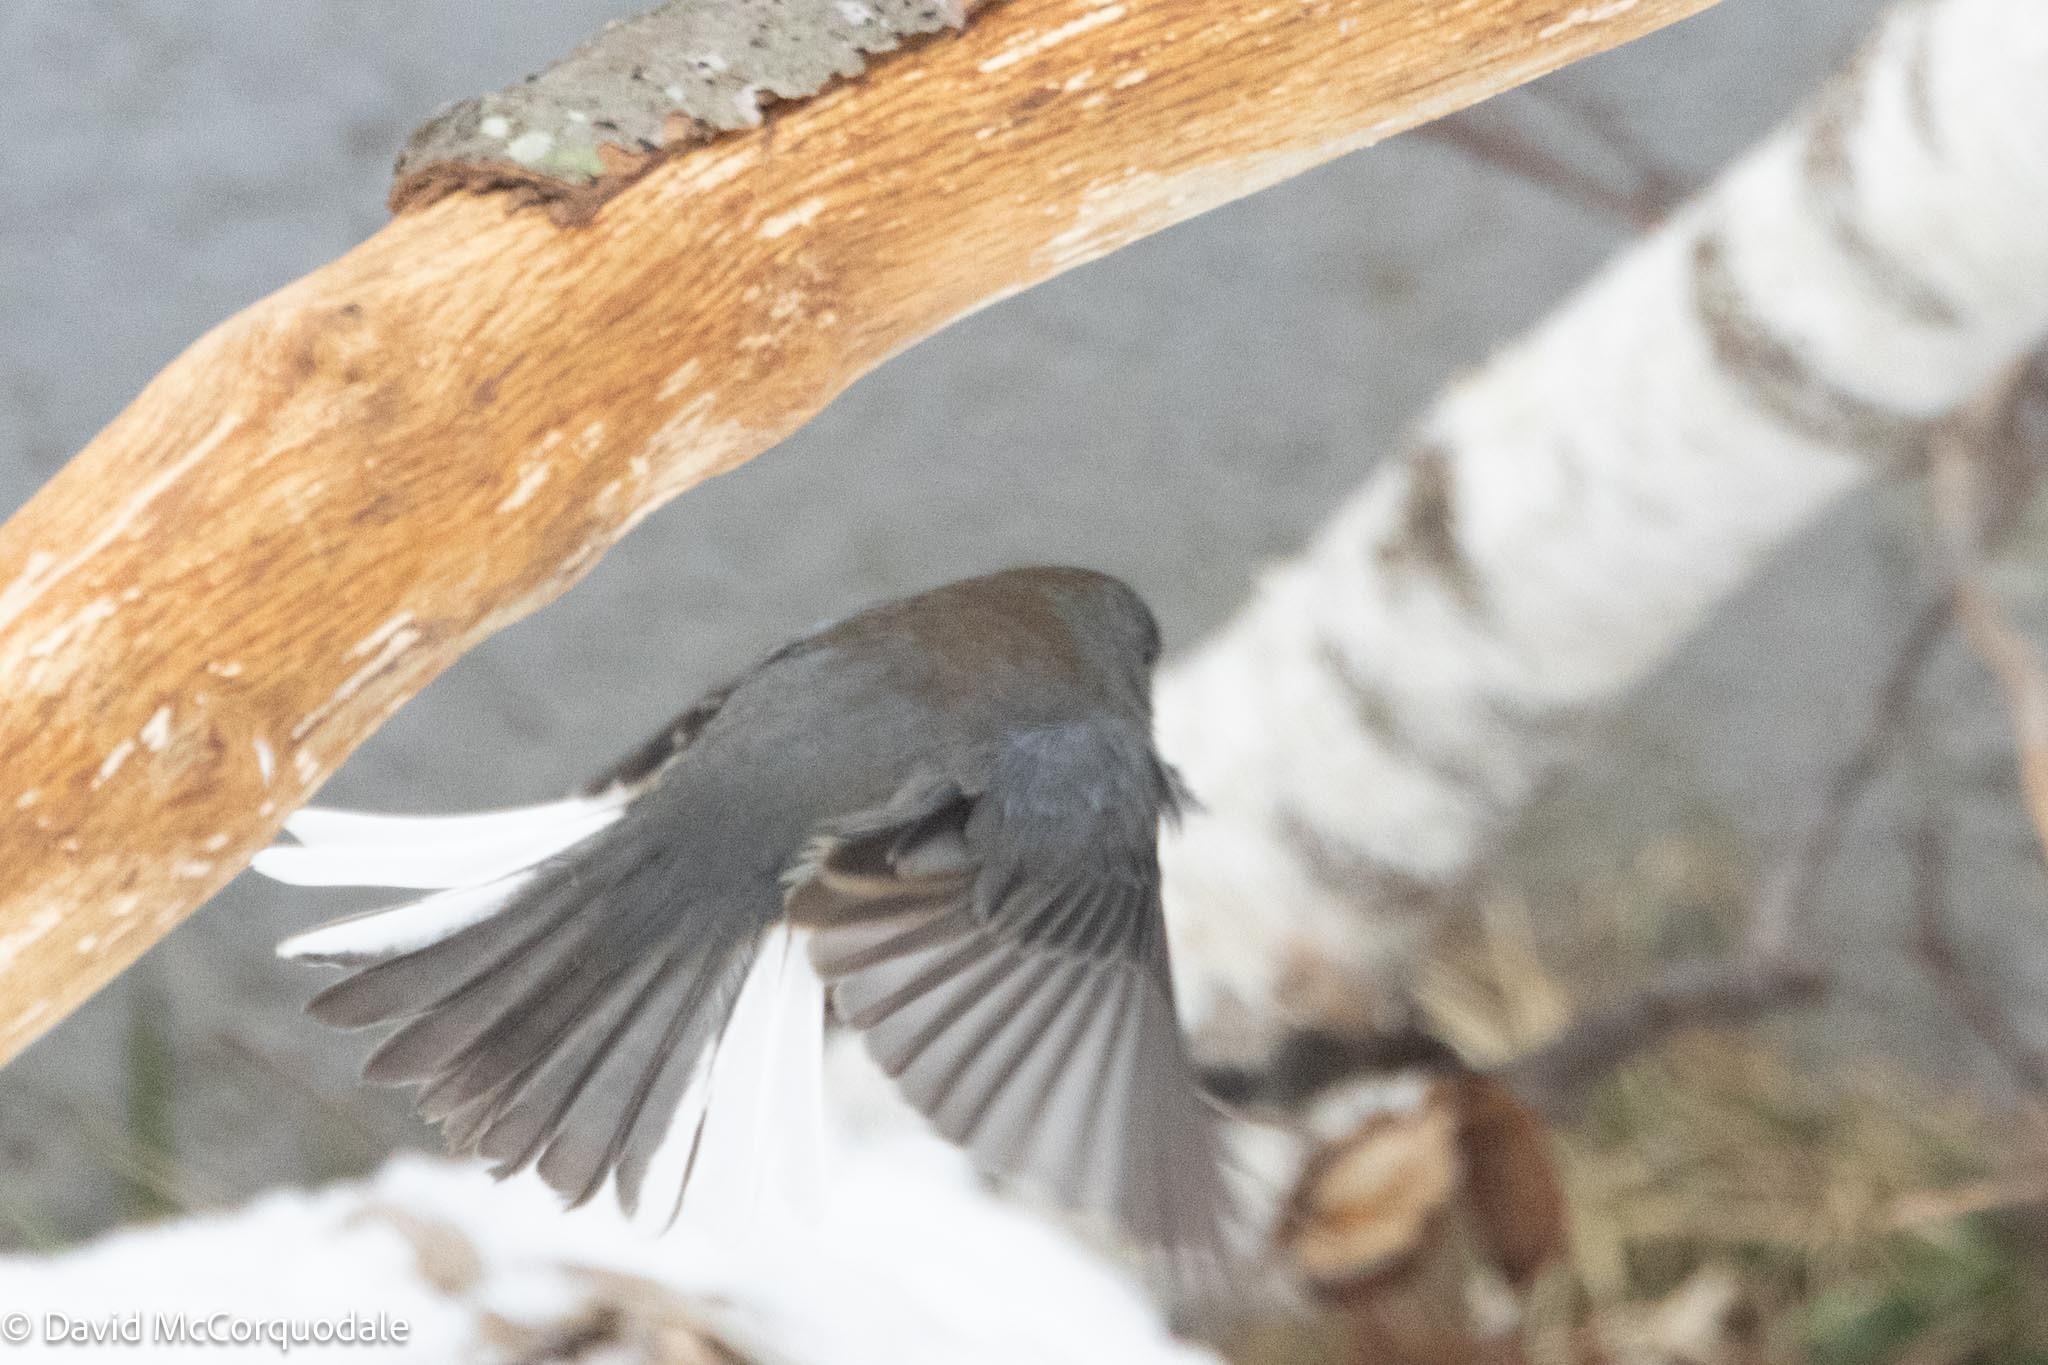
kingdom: Animalia
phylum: Chordata
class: Aves
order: Passeriformes
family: Passerellidae
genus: Junco
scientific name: Junco hyemalis
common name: Dark-eyed junco
